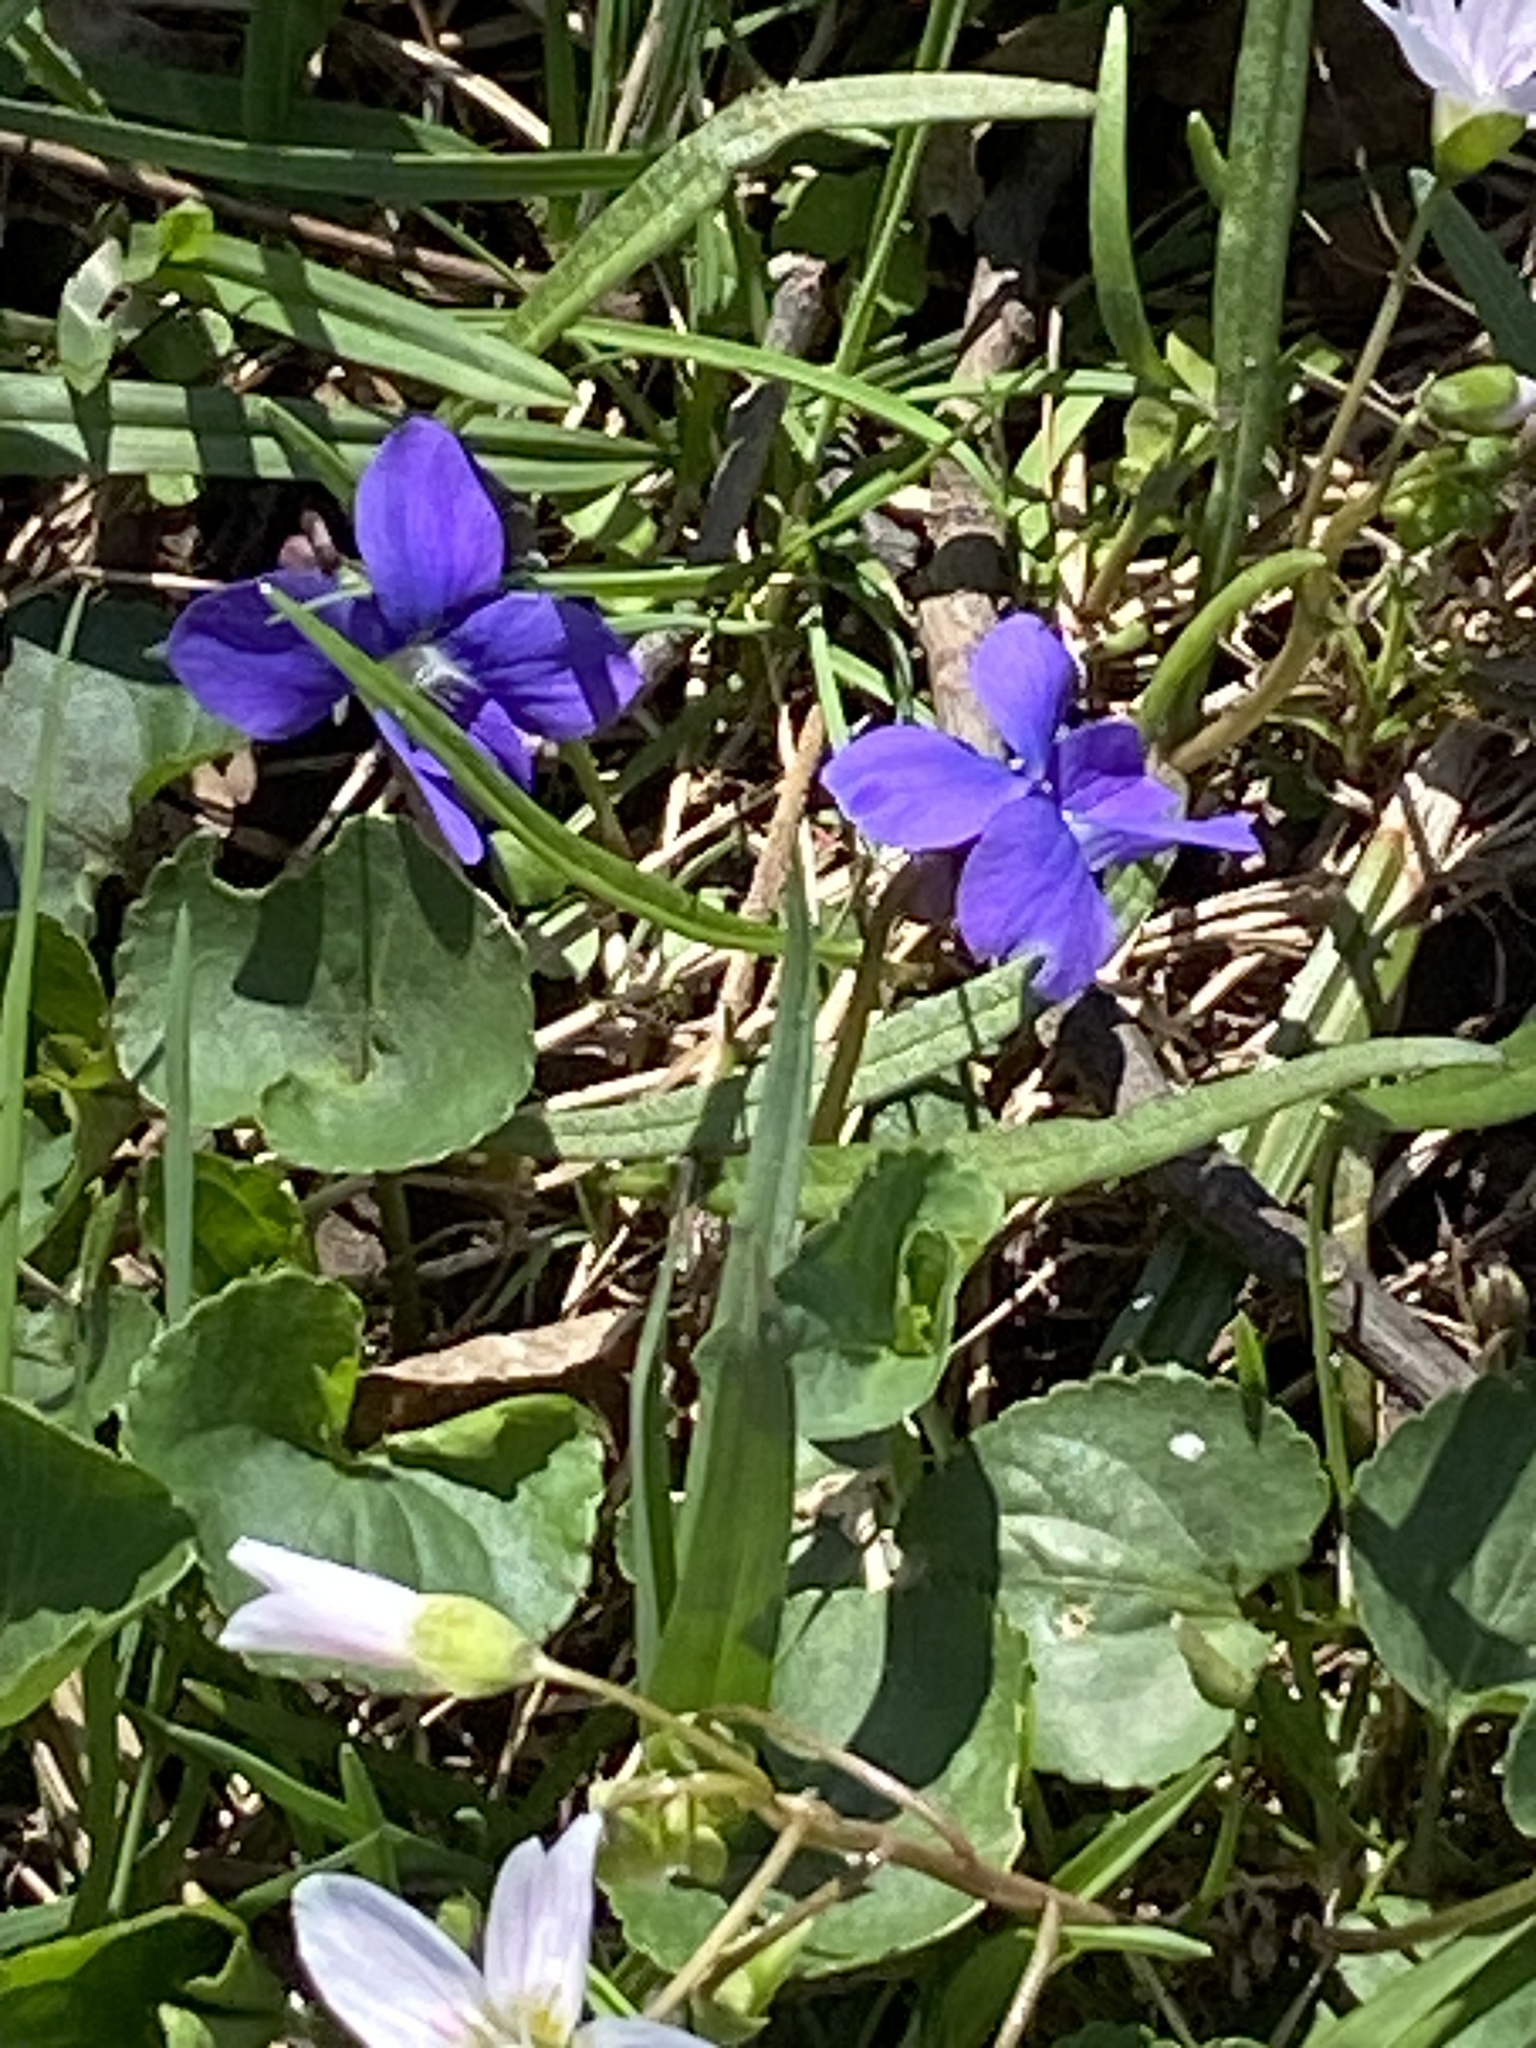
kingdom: Plantae
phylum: Tracheophyta
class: Magnoliopsida
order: Malpighiales
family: Violaceae
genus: Viola
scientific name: Viola sororia
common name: Dooryard violet
